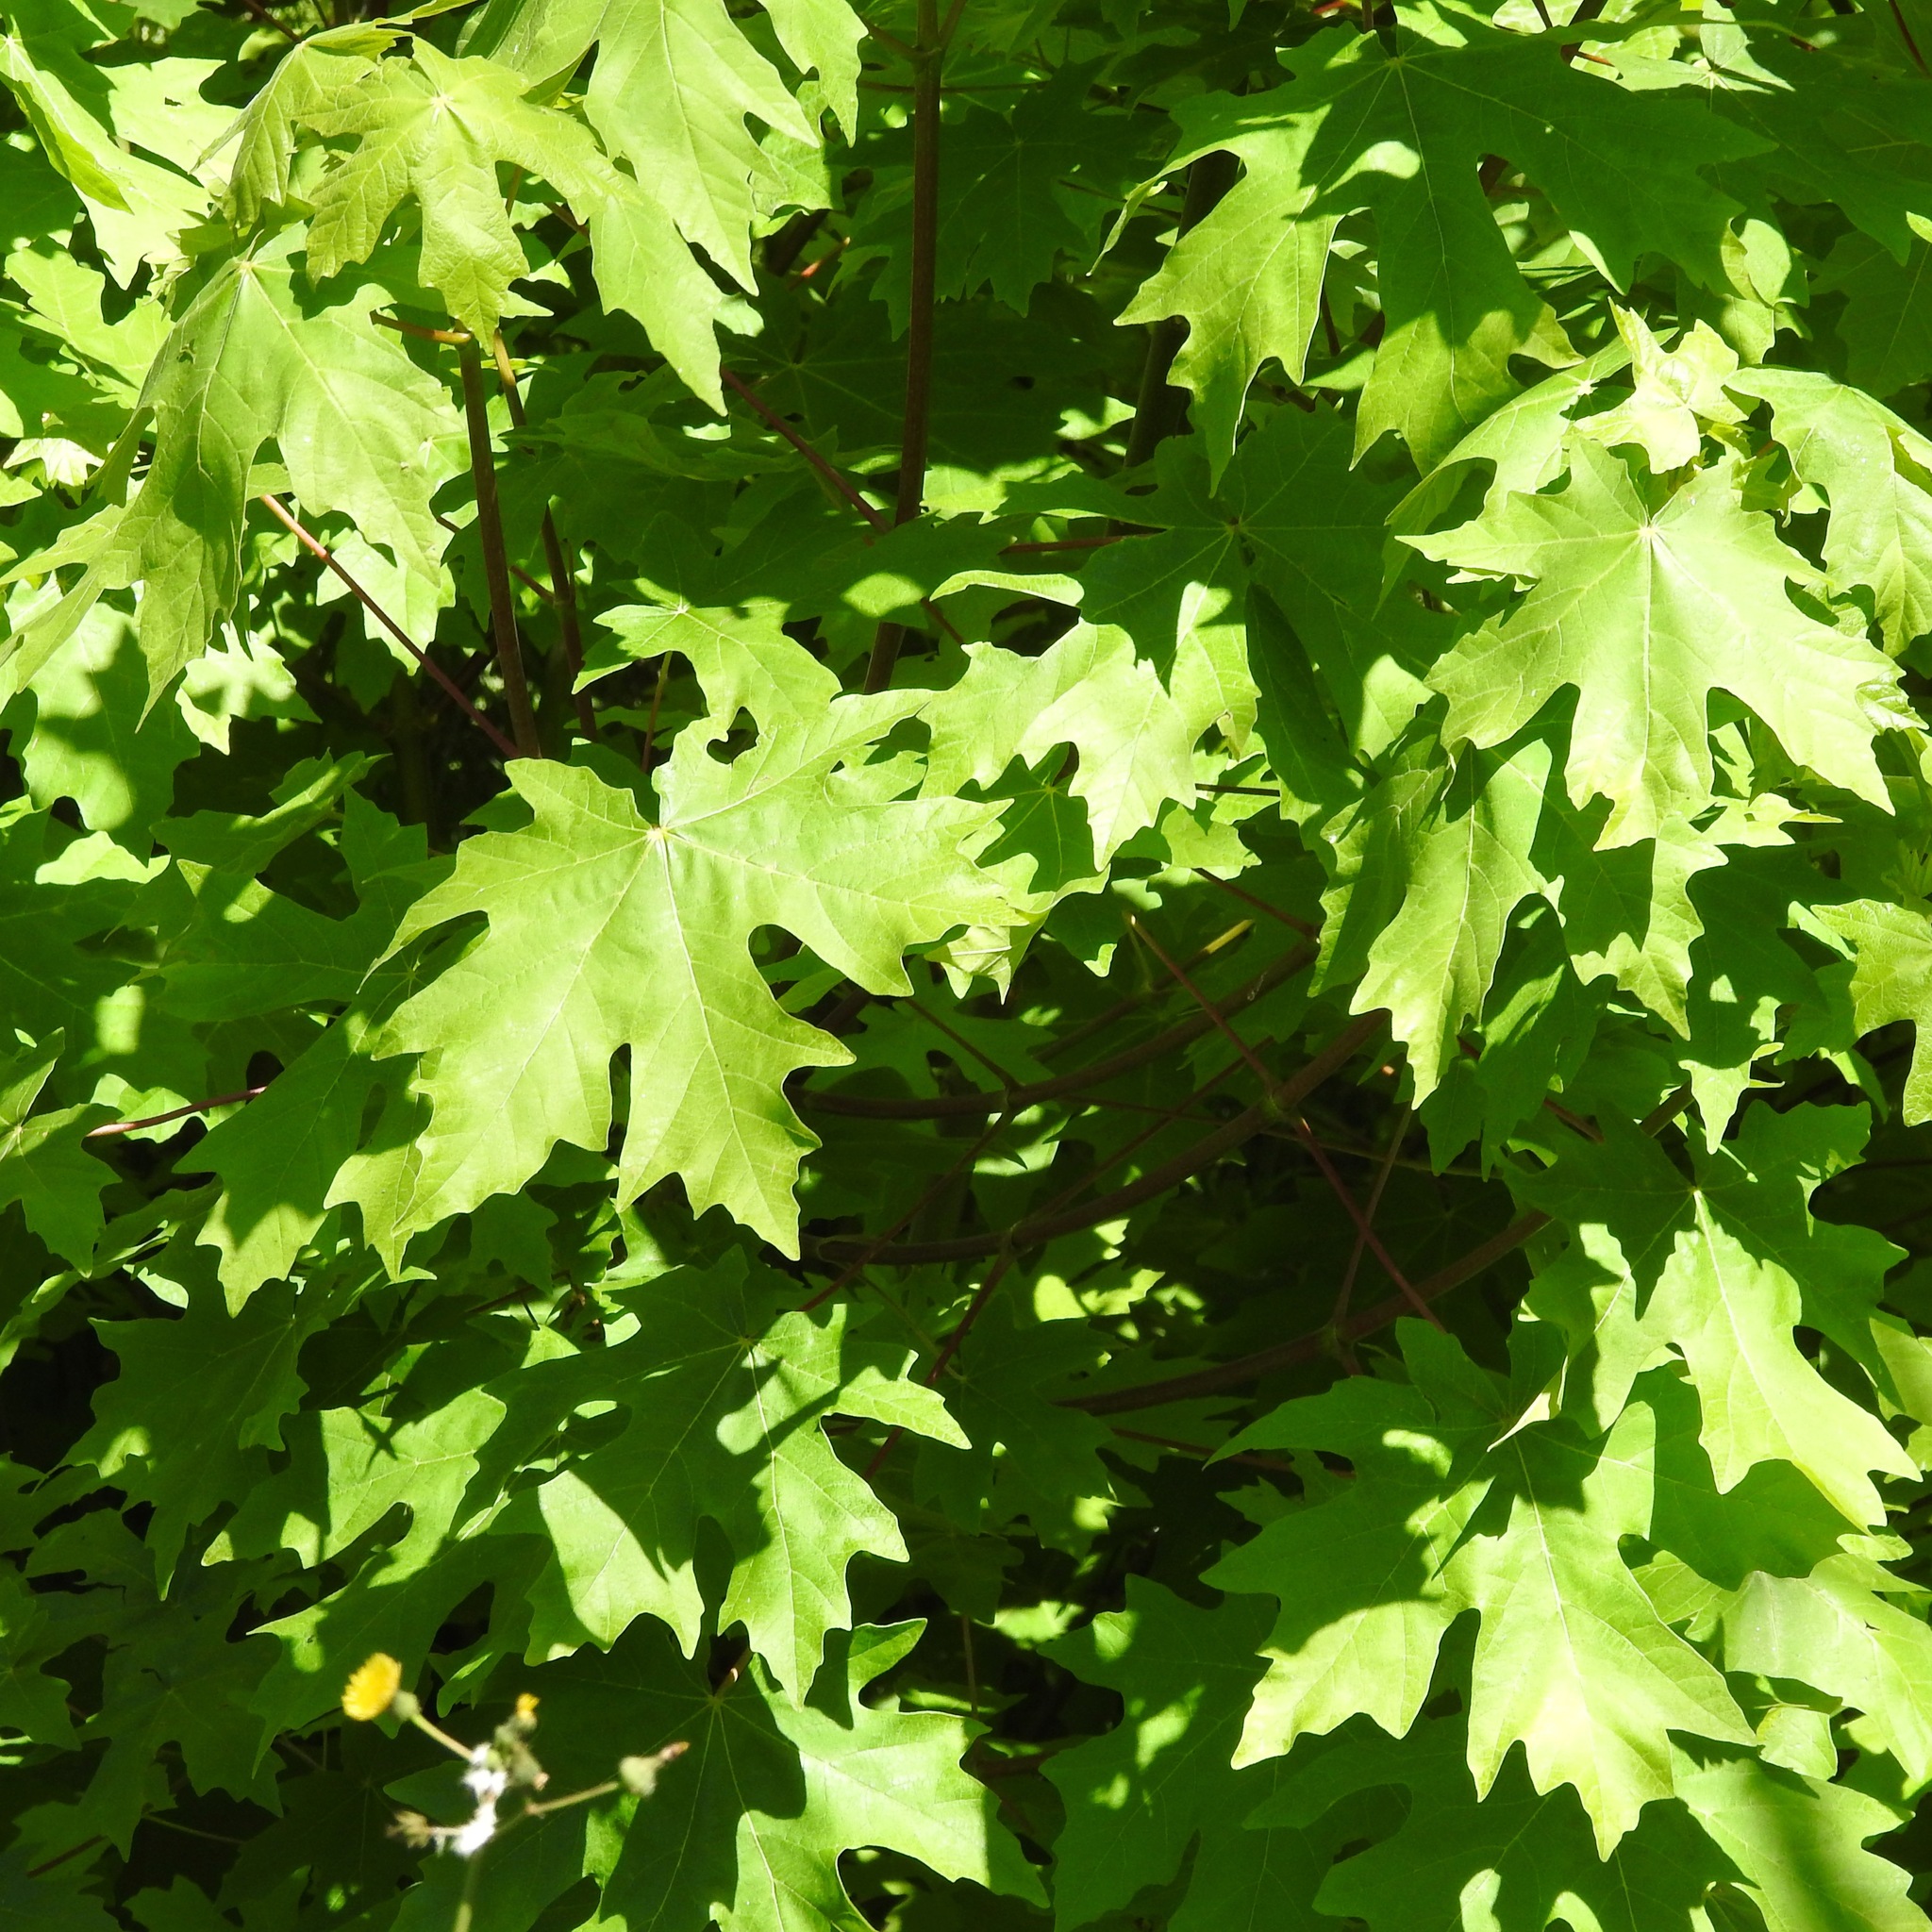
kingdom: Plantae
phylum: Tracheophyta
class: Magnoliopsida
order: Sapindales
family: Sapindaceae
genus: Acer
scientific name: Acer macrophyllum
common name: Oregon maple
